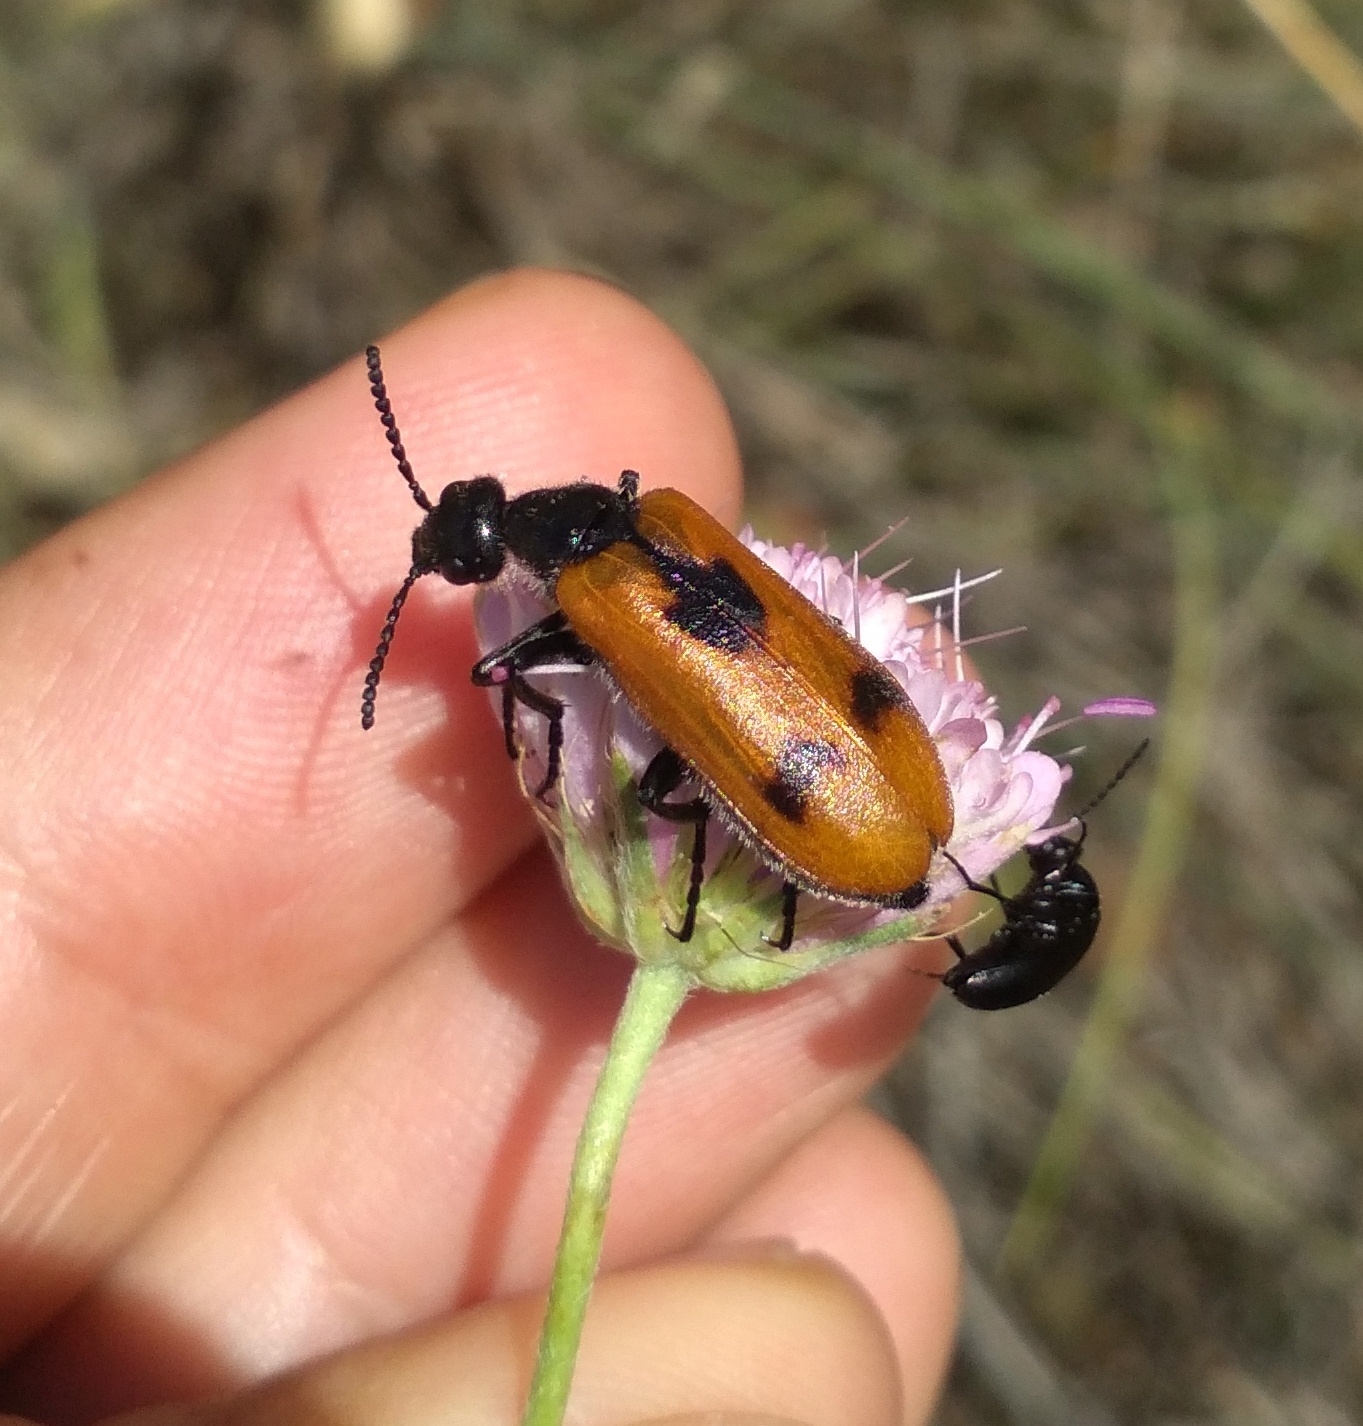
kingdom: Animalia
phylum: Arthropoda
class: Insecta
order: Coleoptera
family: Meloidae
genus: Lydus
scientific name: Lydus trimaculatus
